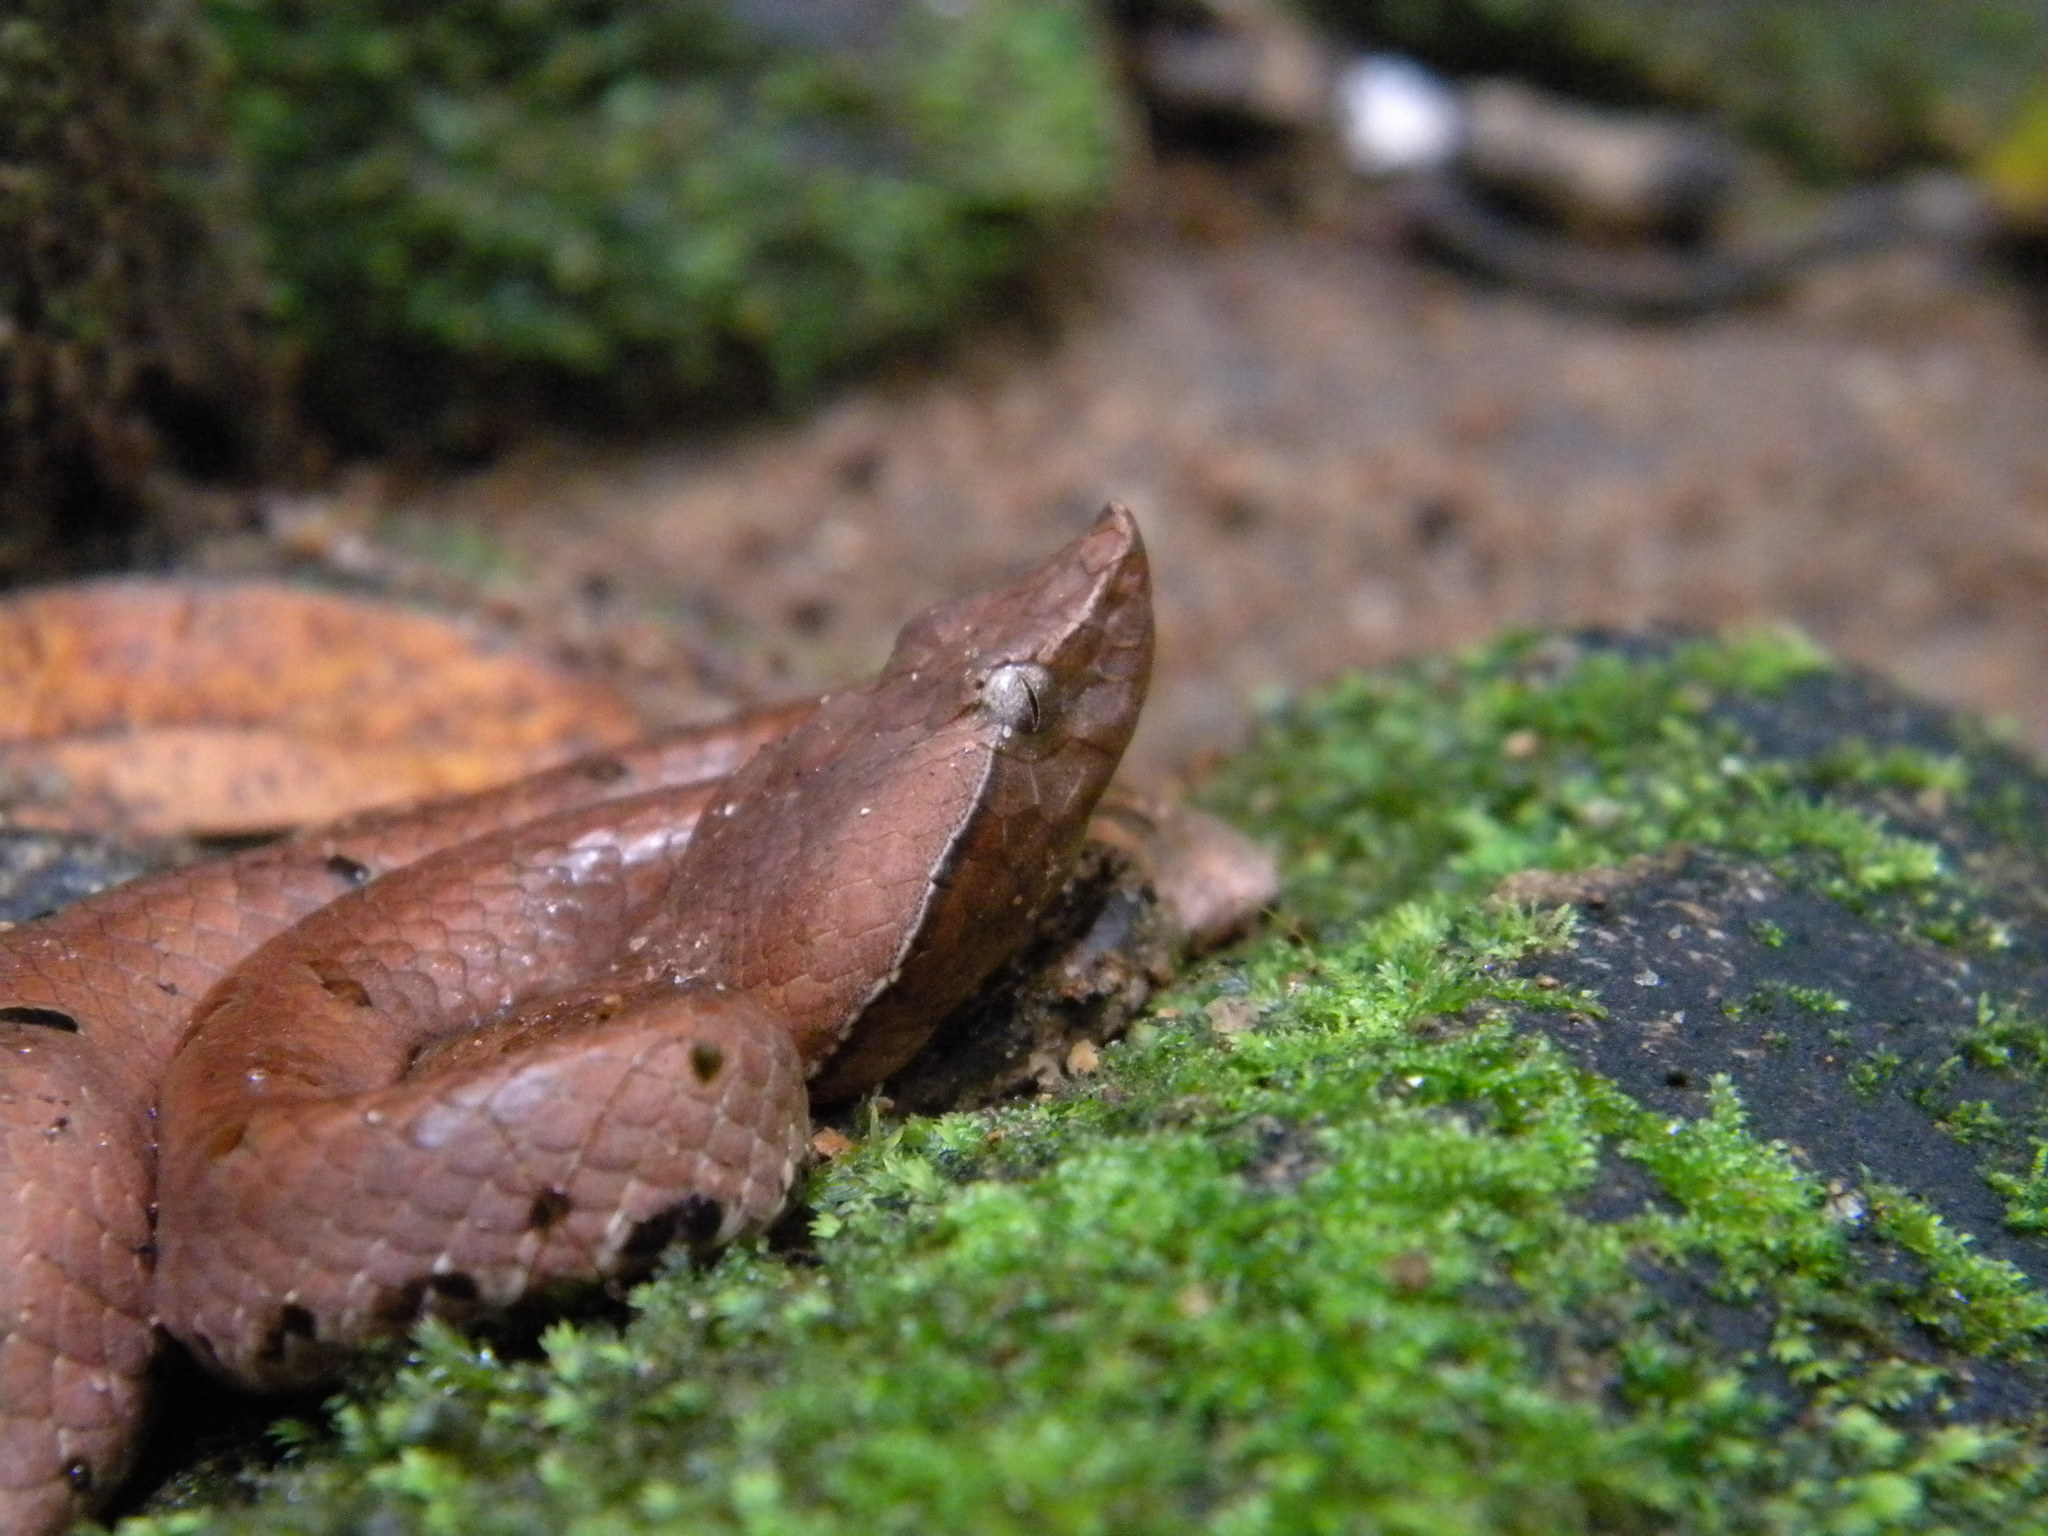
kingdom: Animalia
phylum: Chordata
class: Squamata
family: Viperidae
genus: Hypnale
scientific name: Hypnale hypnale
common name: Hump-nosed moccasin
